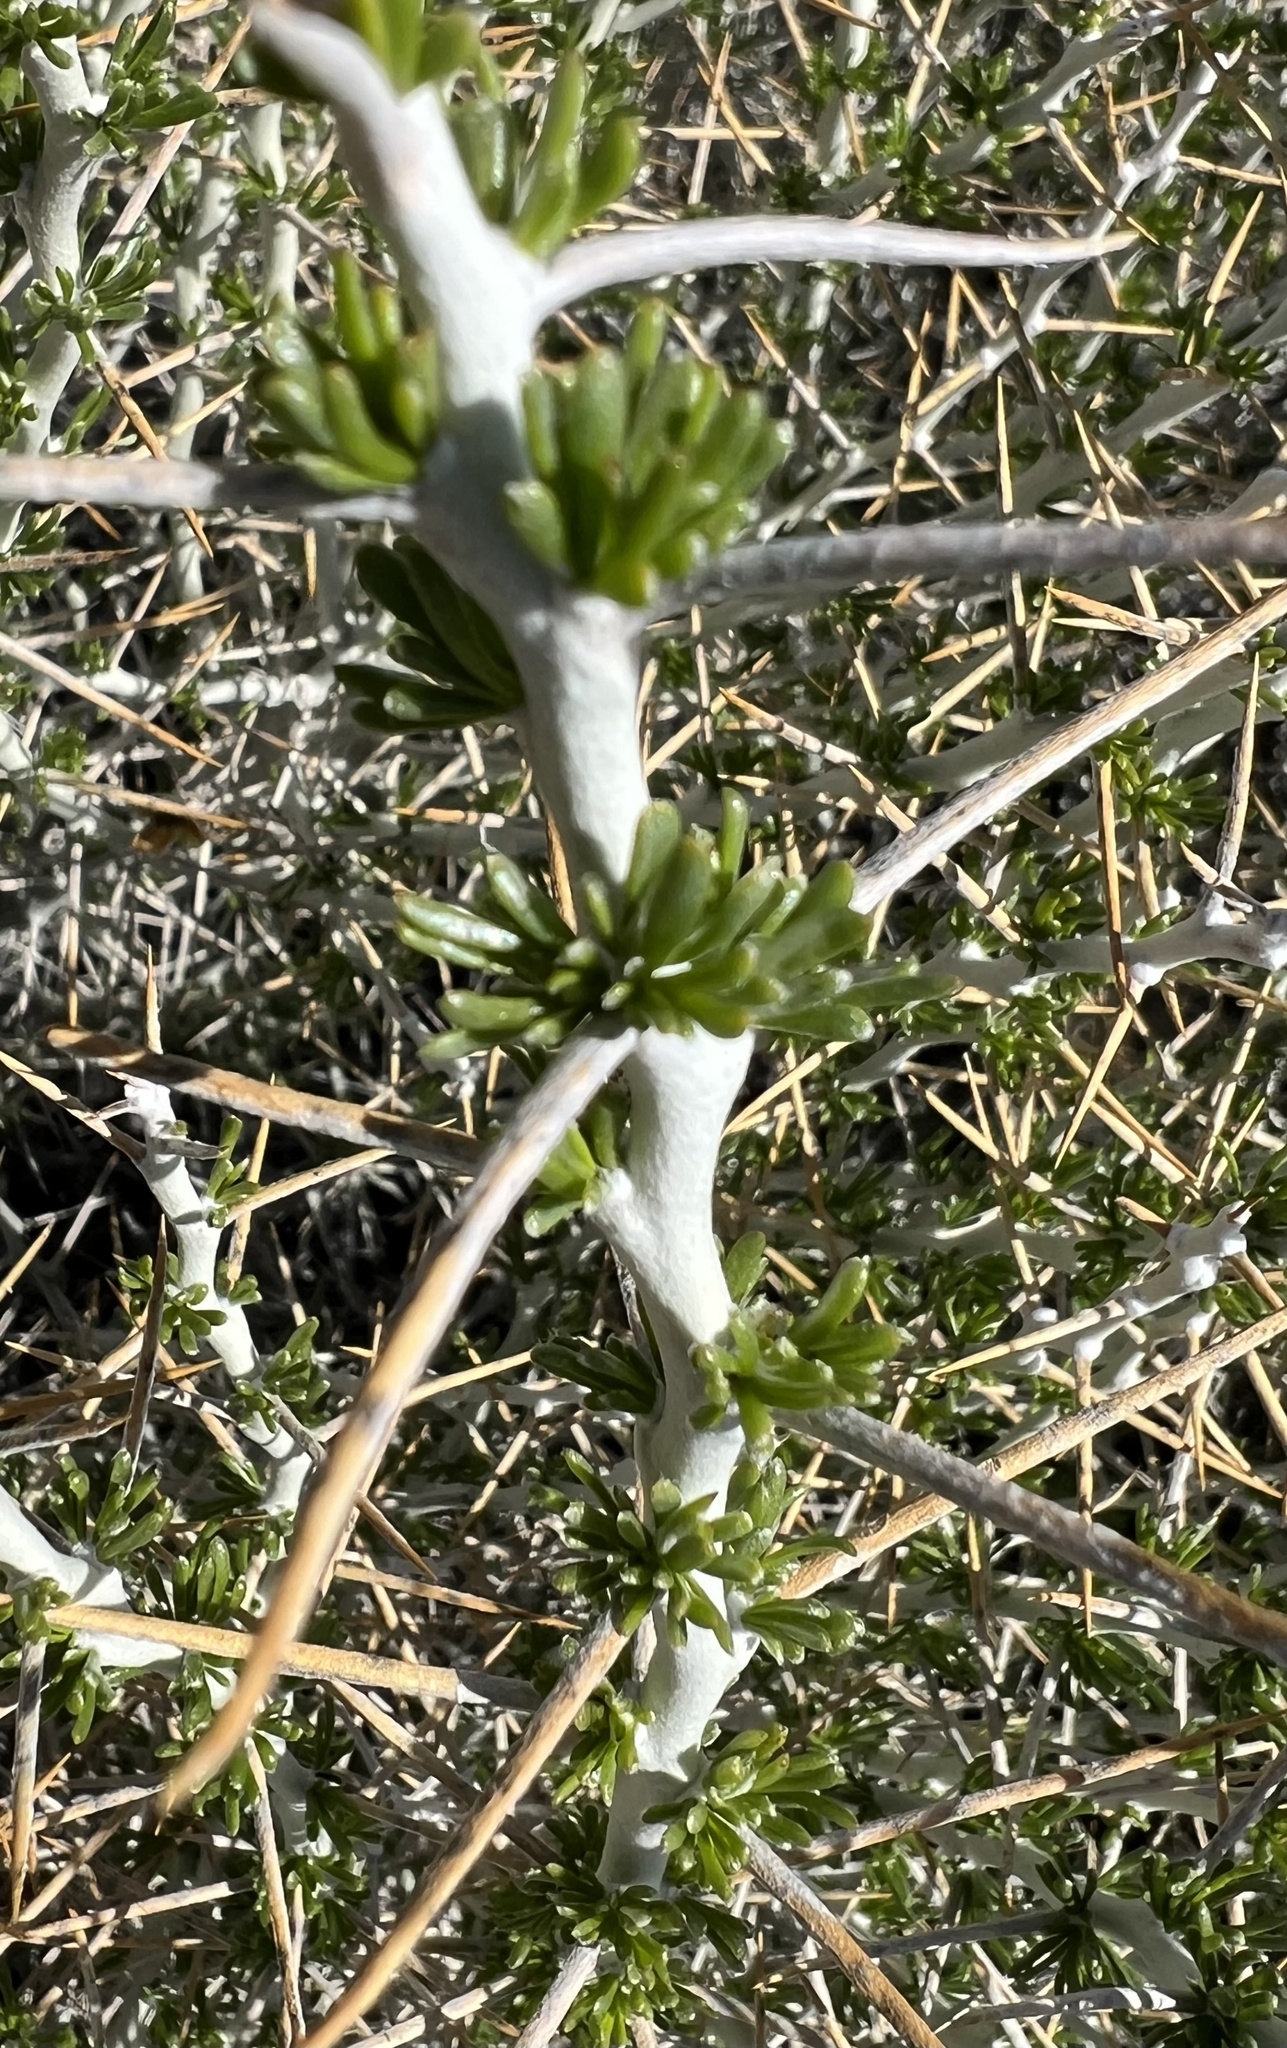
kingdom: Plantae
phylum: Tracheophyta
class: Magnoliopsida
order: Asterales
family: Asteraceae
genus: Tetradymia
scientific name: Tetradymia axillaris
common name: Long-spine horsebrush
